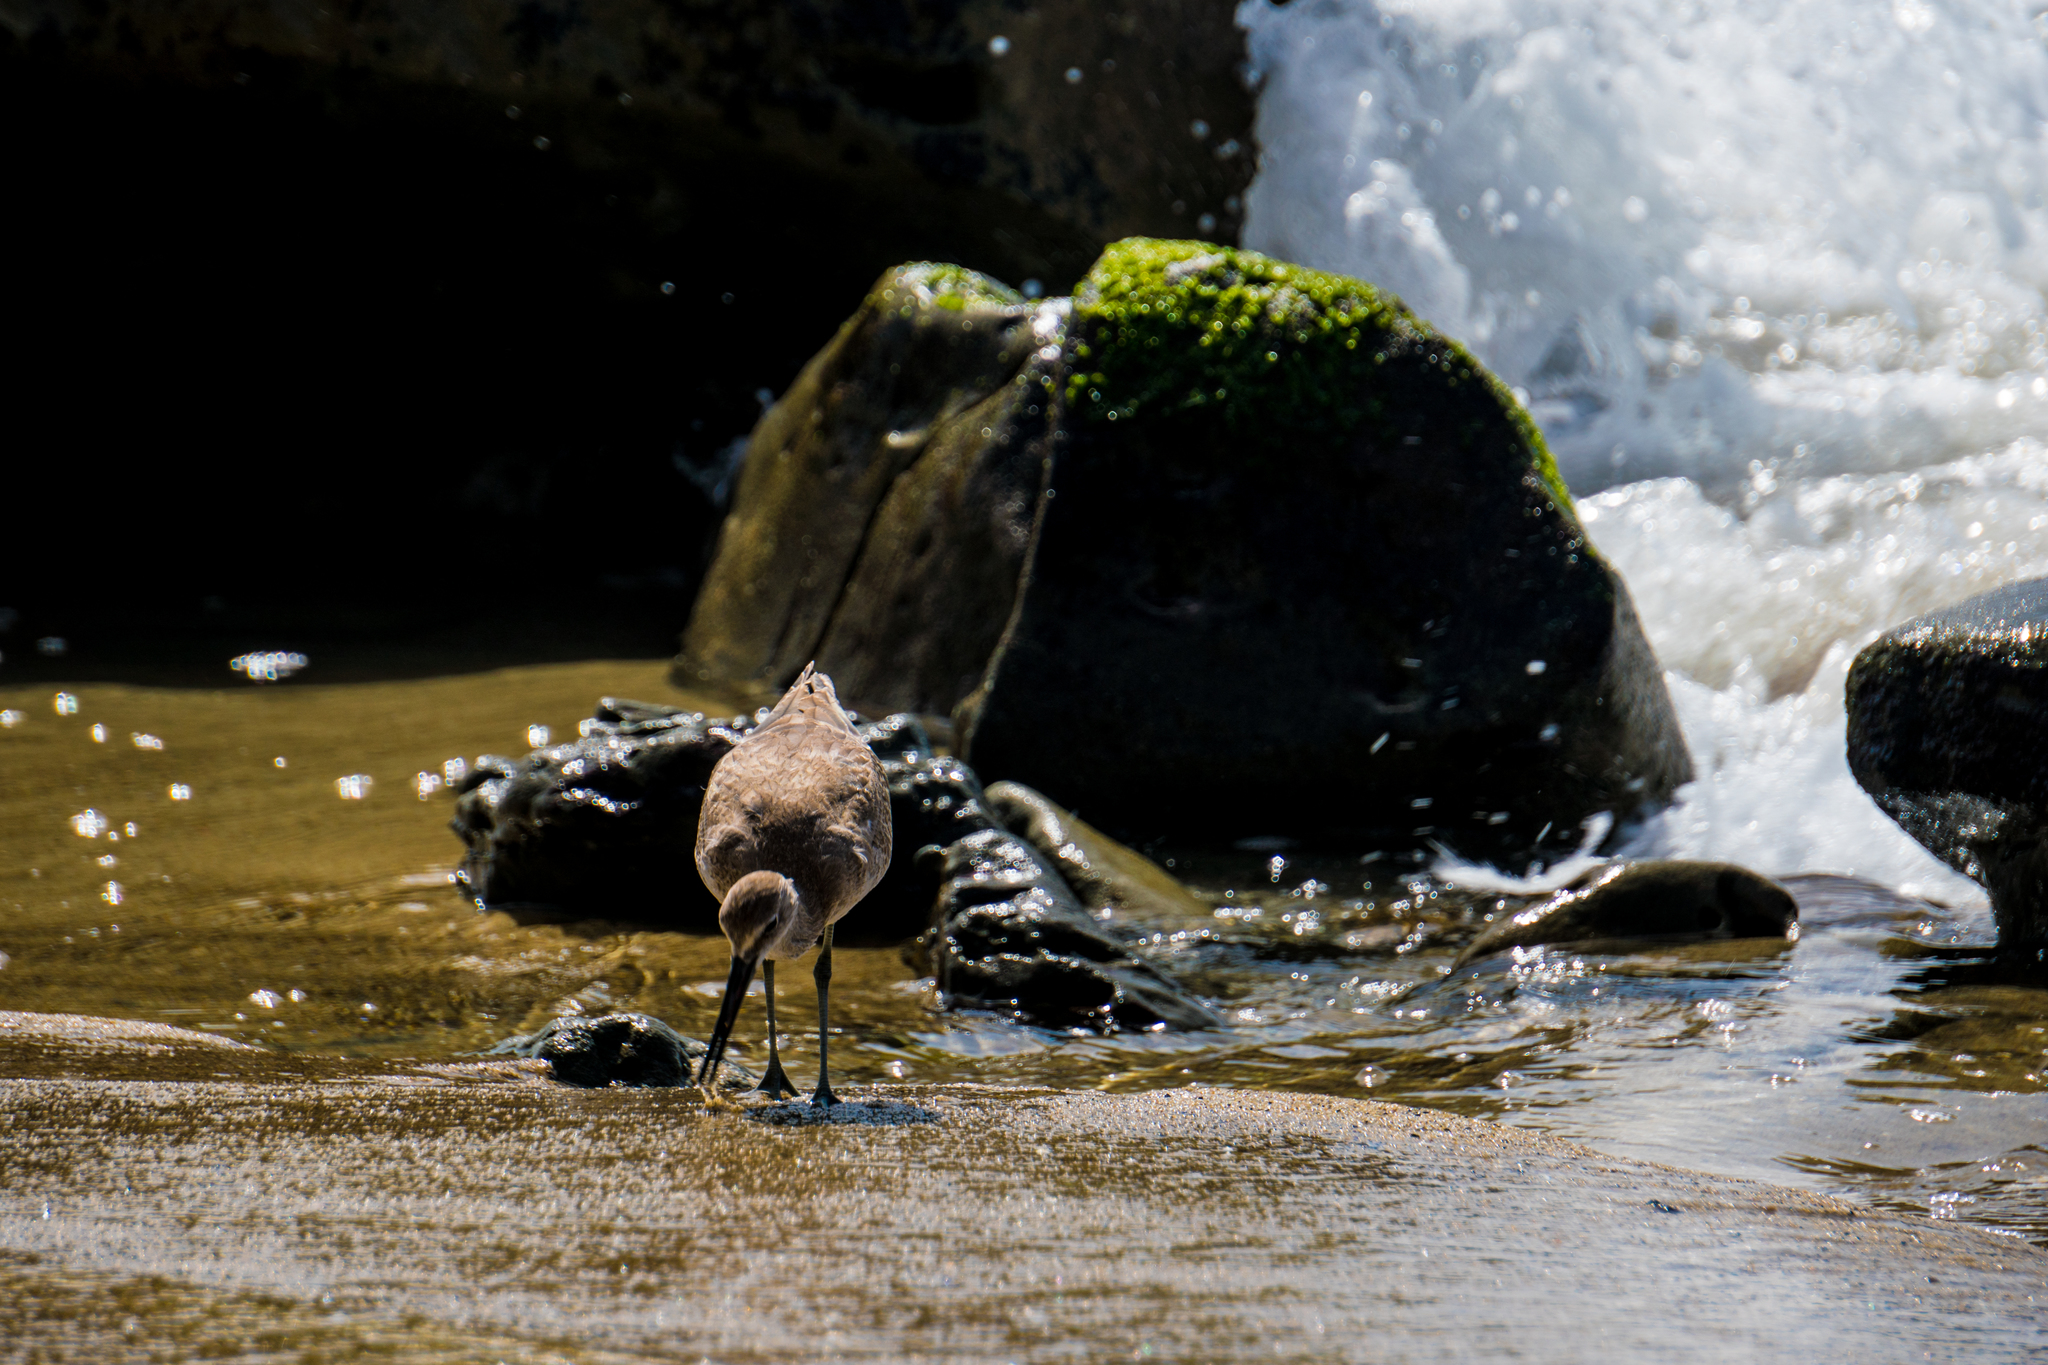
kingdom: Animalia
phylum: Chordata
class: Aves
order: Charadriiformes
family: Scolopacidae
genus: Tringa
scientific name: Tringa semipalmata
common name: Willet
